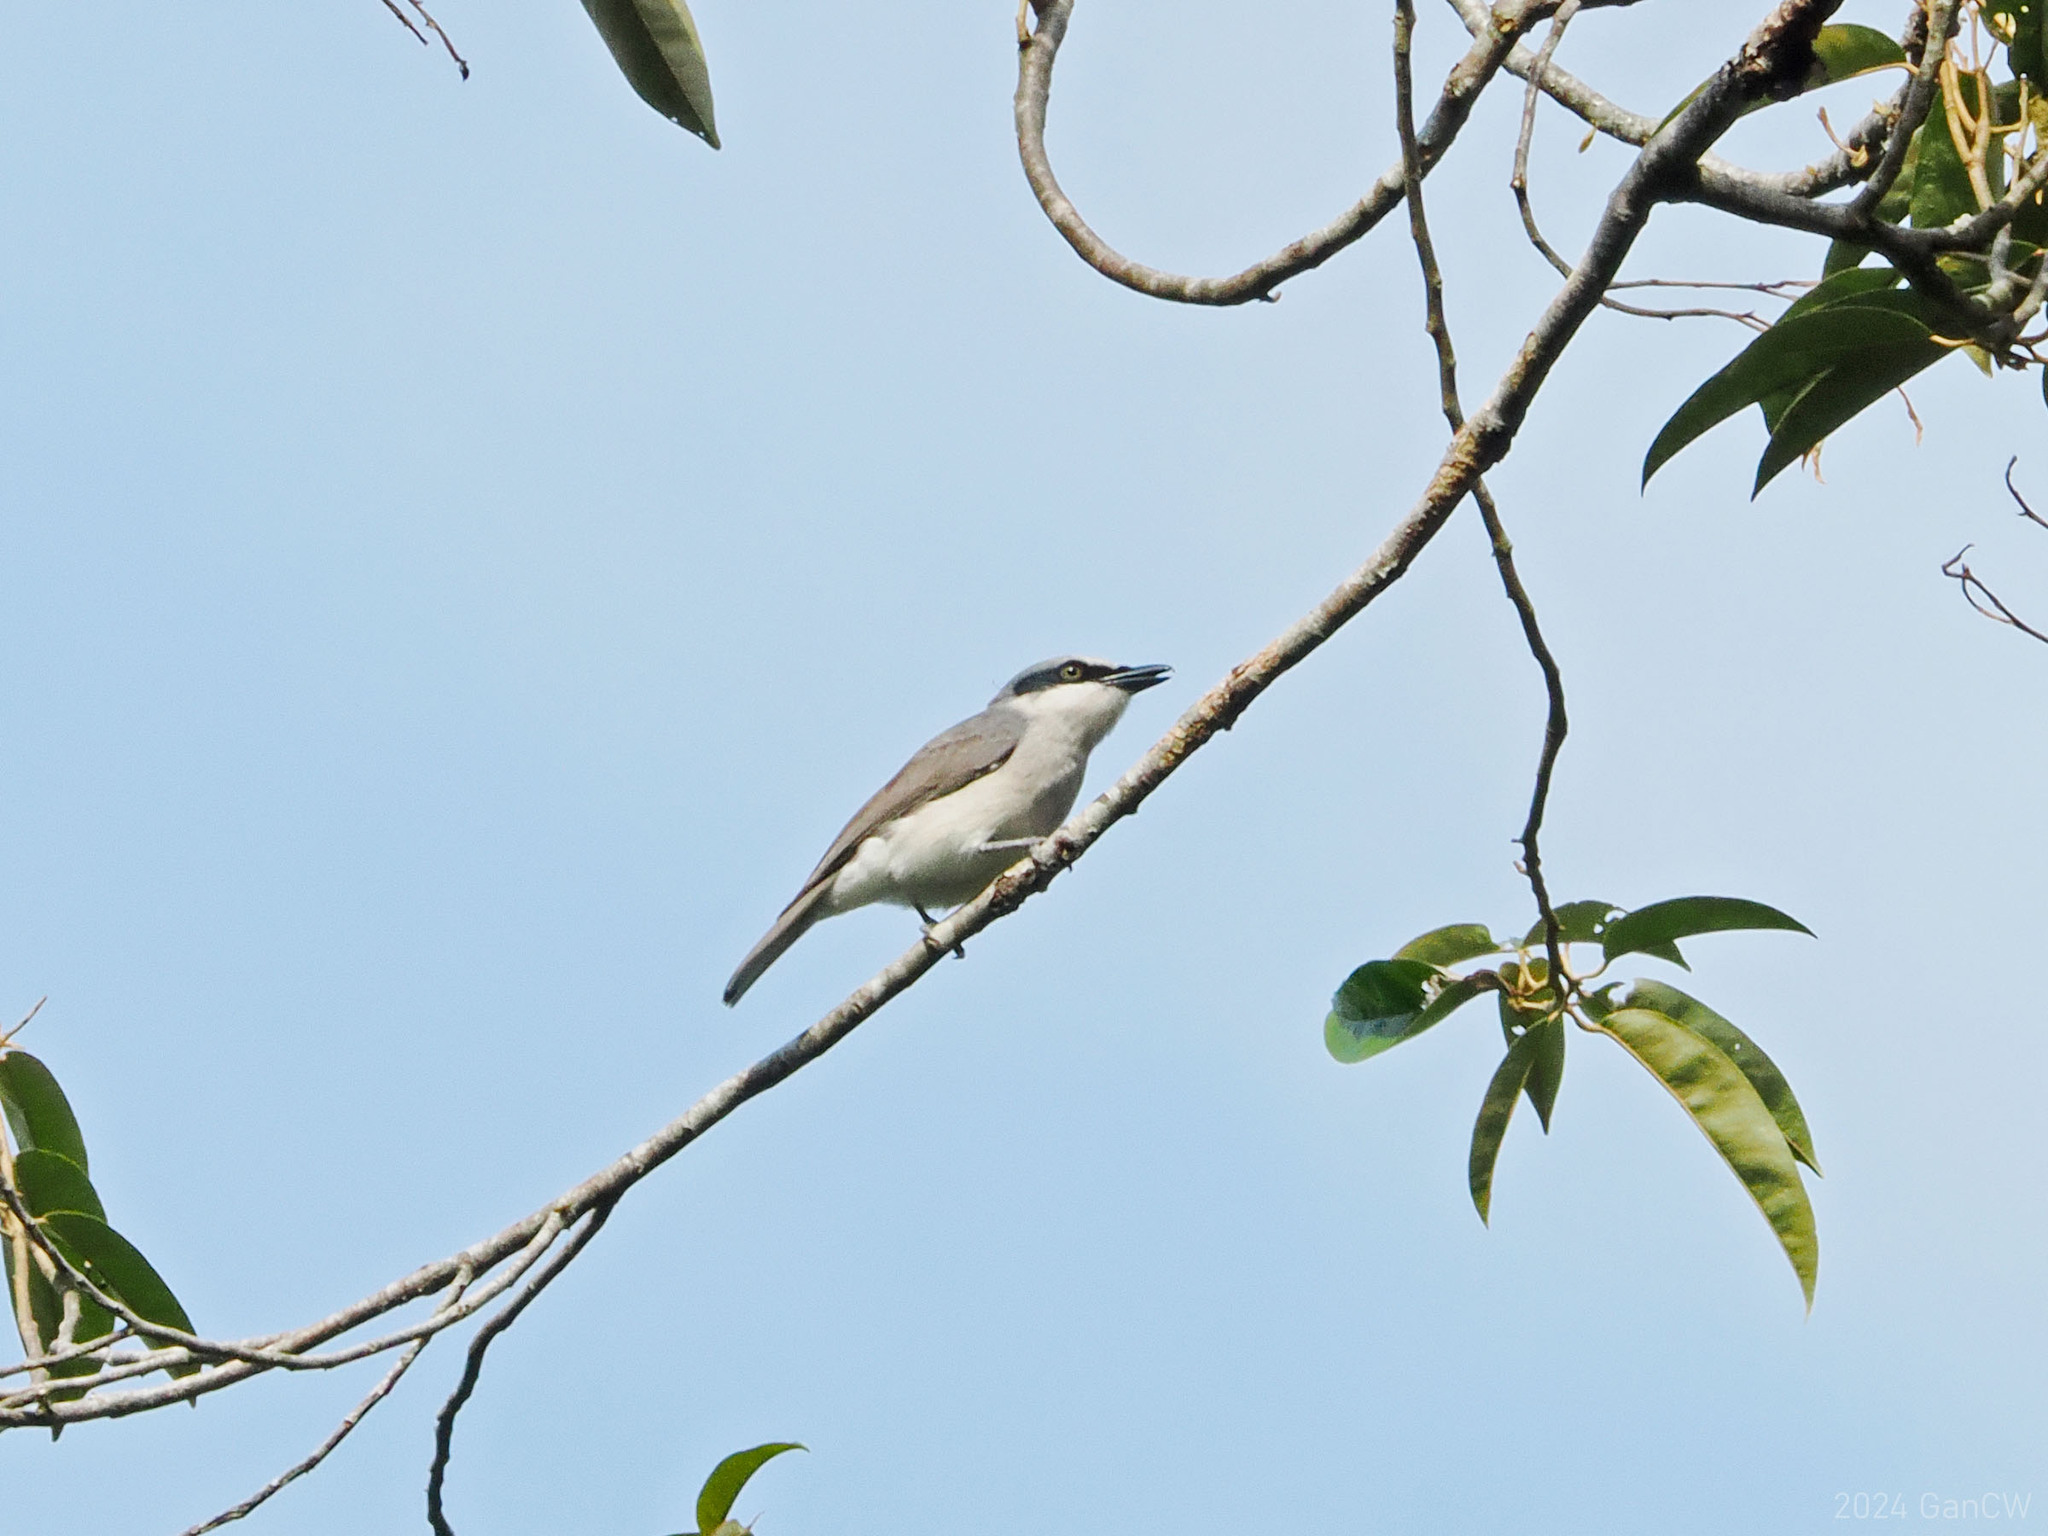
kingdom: Animalia
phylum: Chordata
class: Aves
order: Passeriformes
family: Tephrodornithidae
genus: Tephrodornis
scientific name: Tephrodornis virgatus
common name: Large woodshrike
